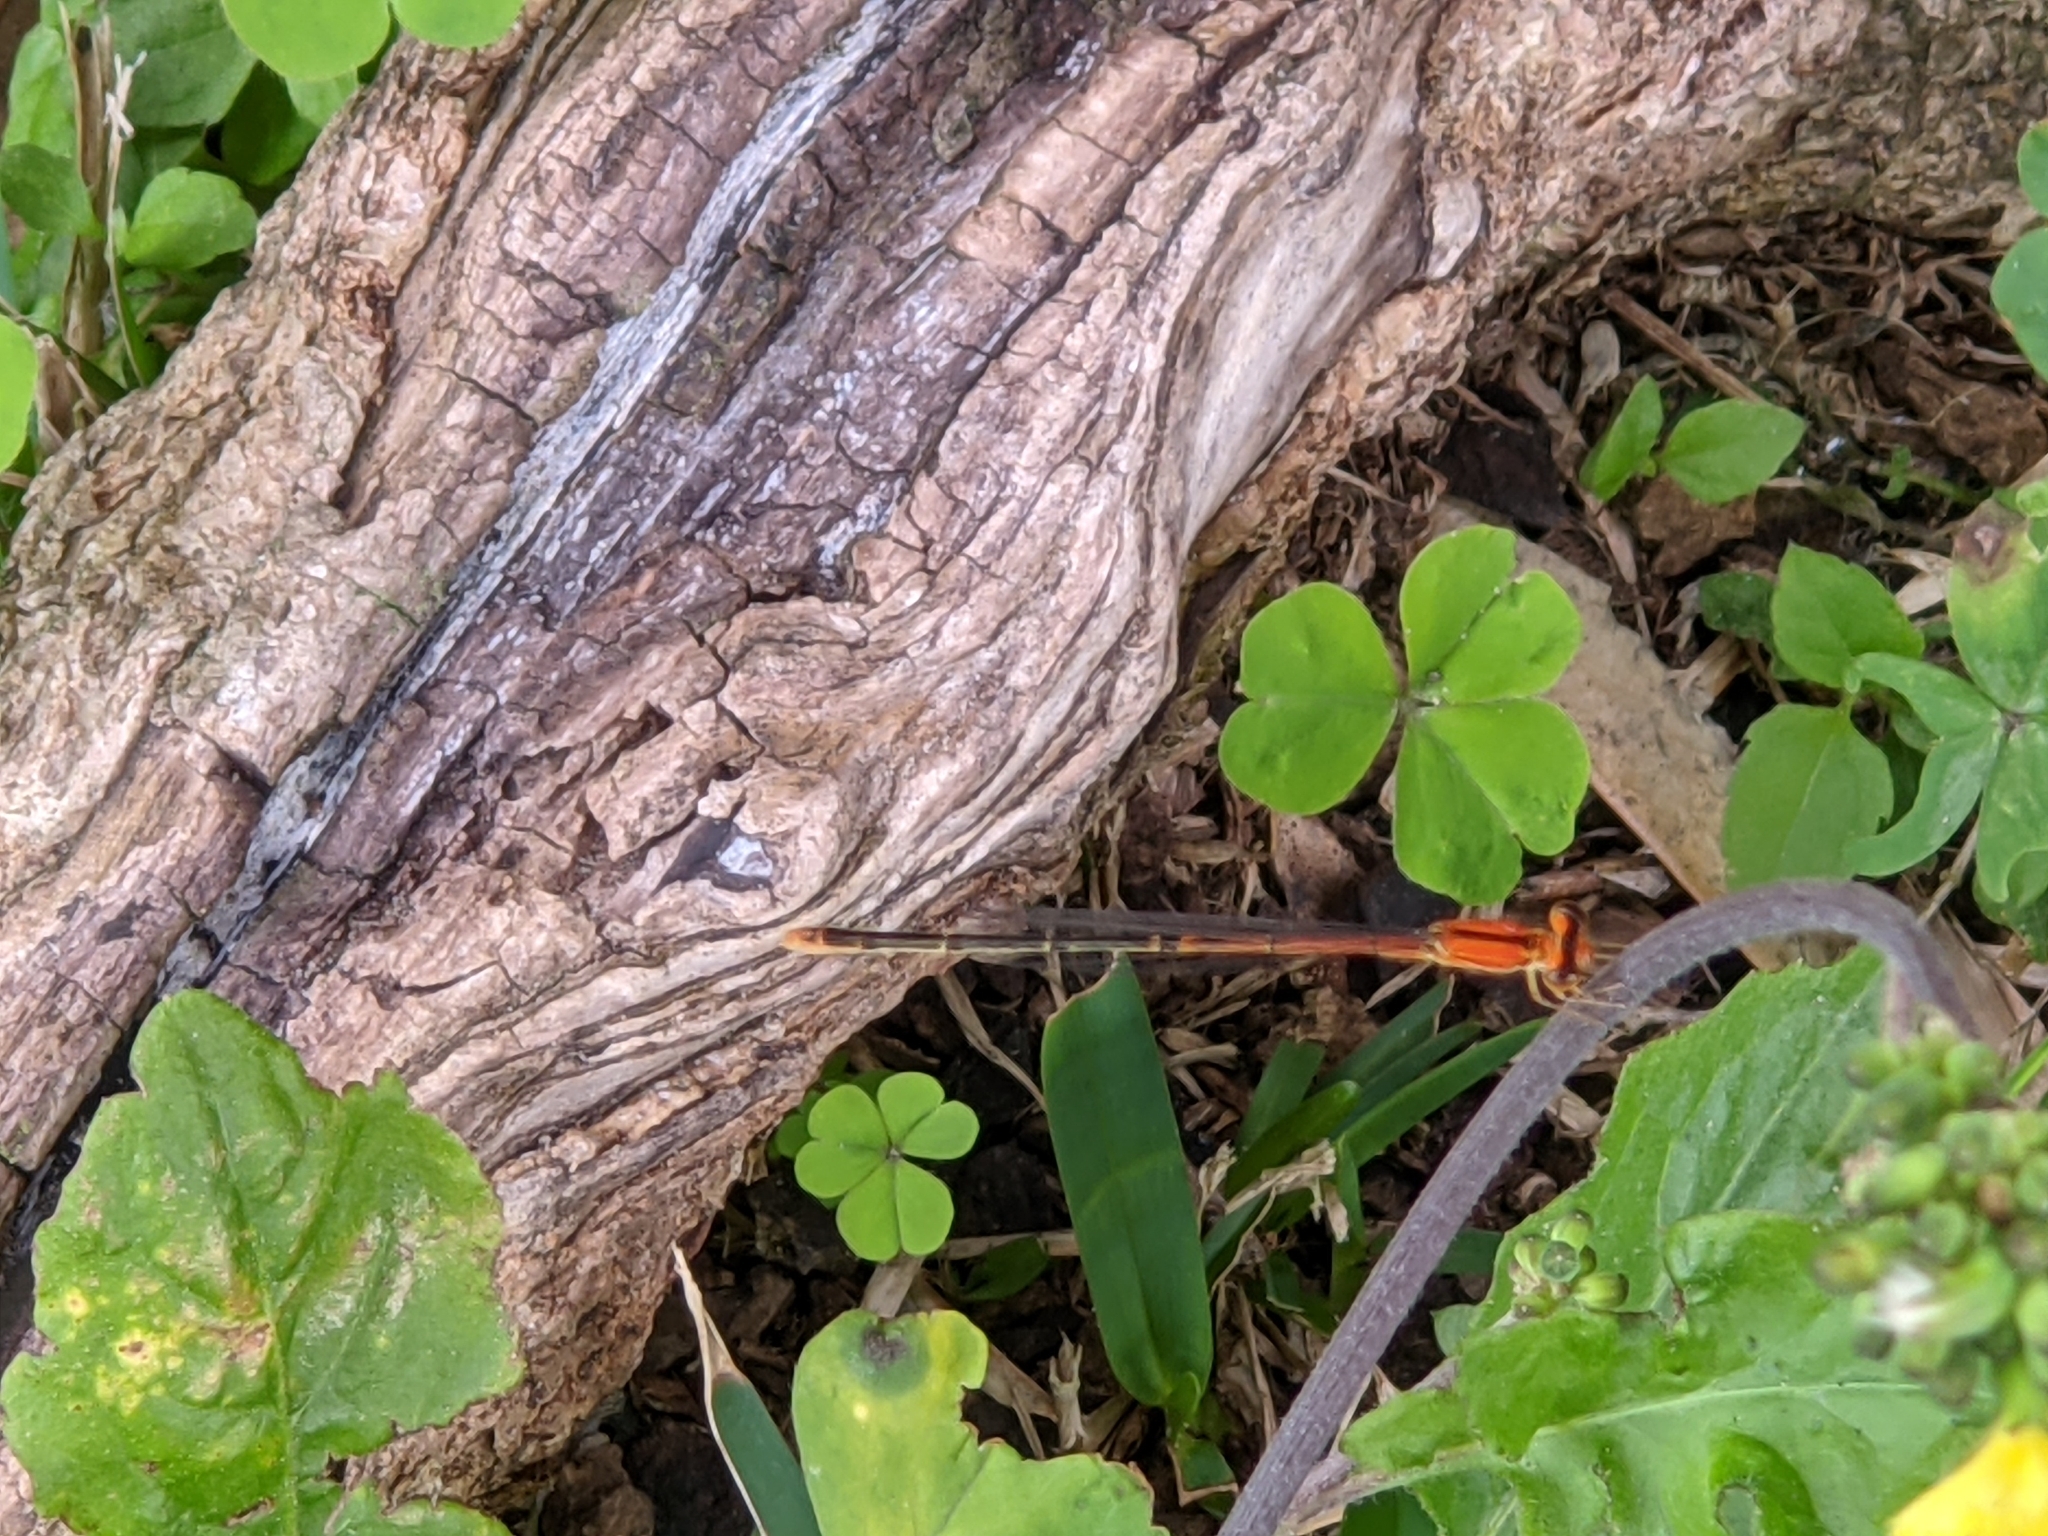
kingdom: Animalia
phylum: Arthropoda
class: Insecta
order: Odonata
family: Coenagrionidae
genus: Ischnura
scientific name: Ischnura prognata
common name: Furtive forktail
